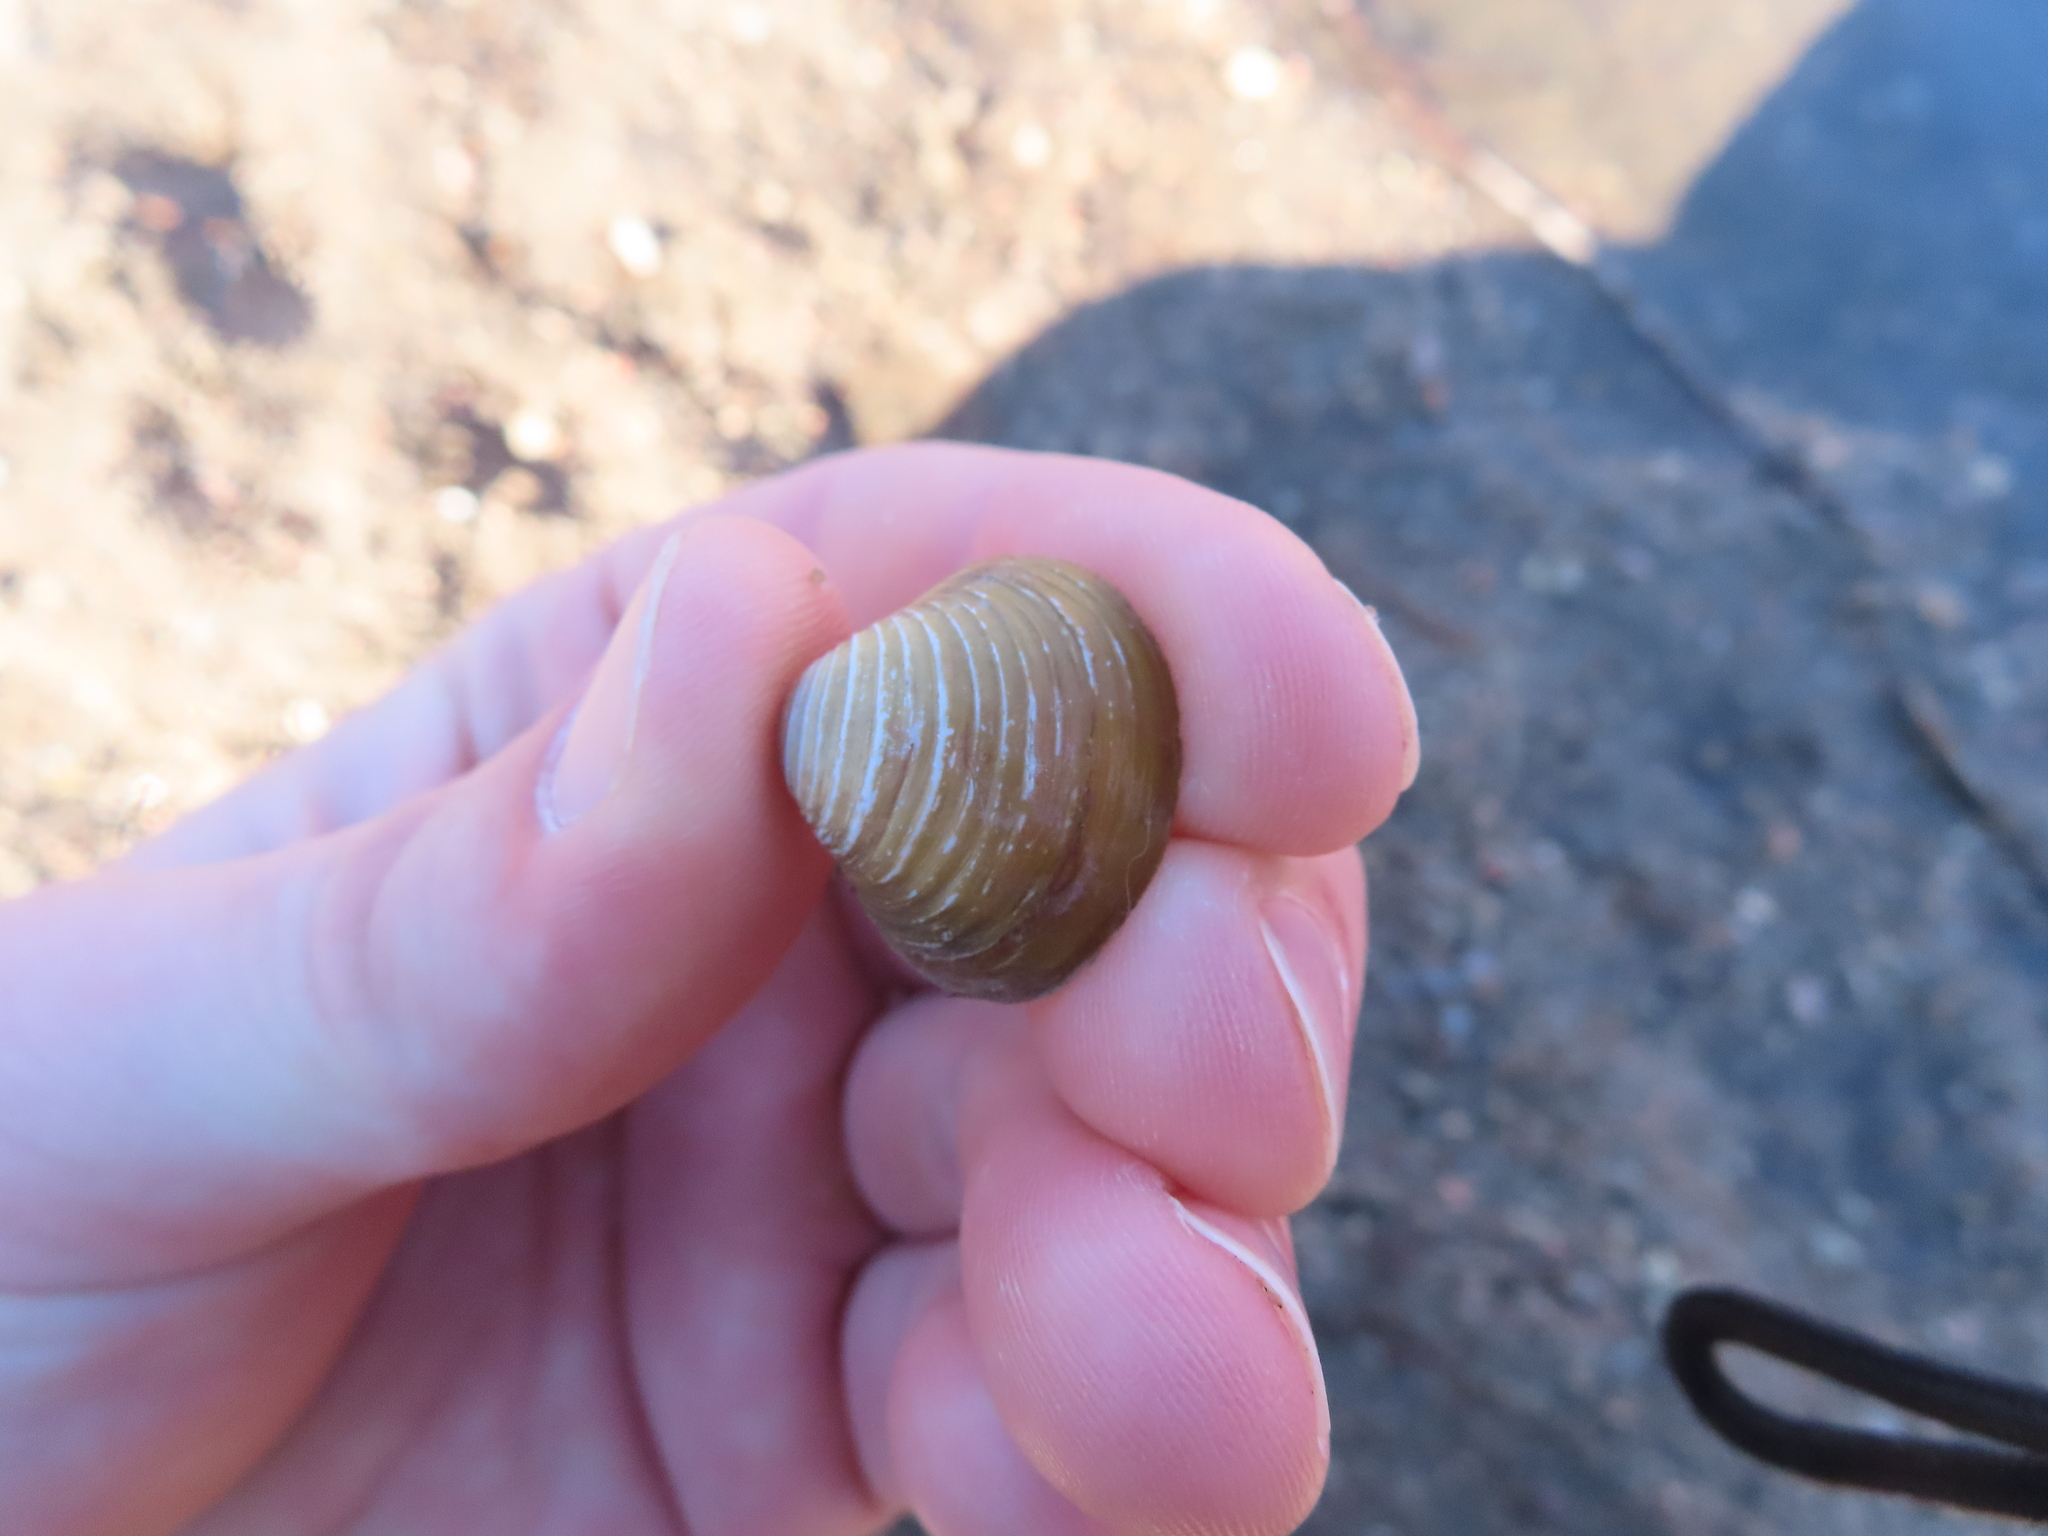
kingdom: Animalia
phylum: Mollusca
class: Bivalvia
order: Venerida
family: Cyrenidae
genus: Corbicula
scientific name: Corbicula fluminea
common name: Asian clam
